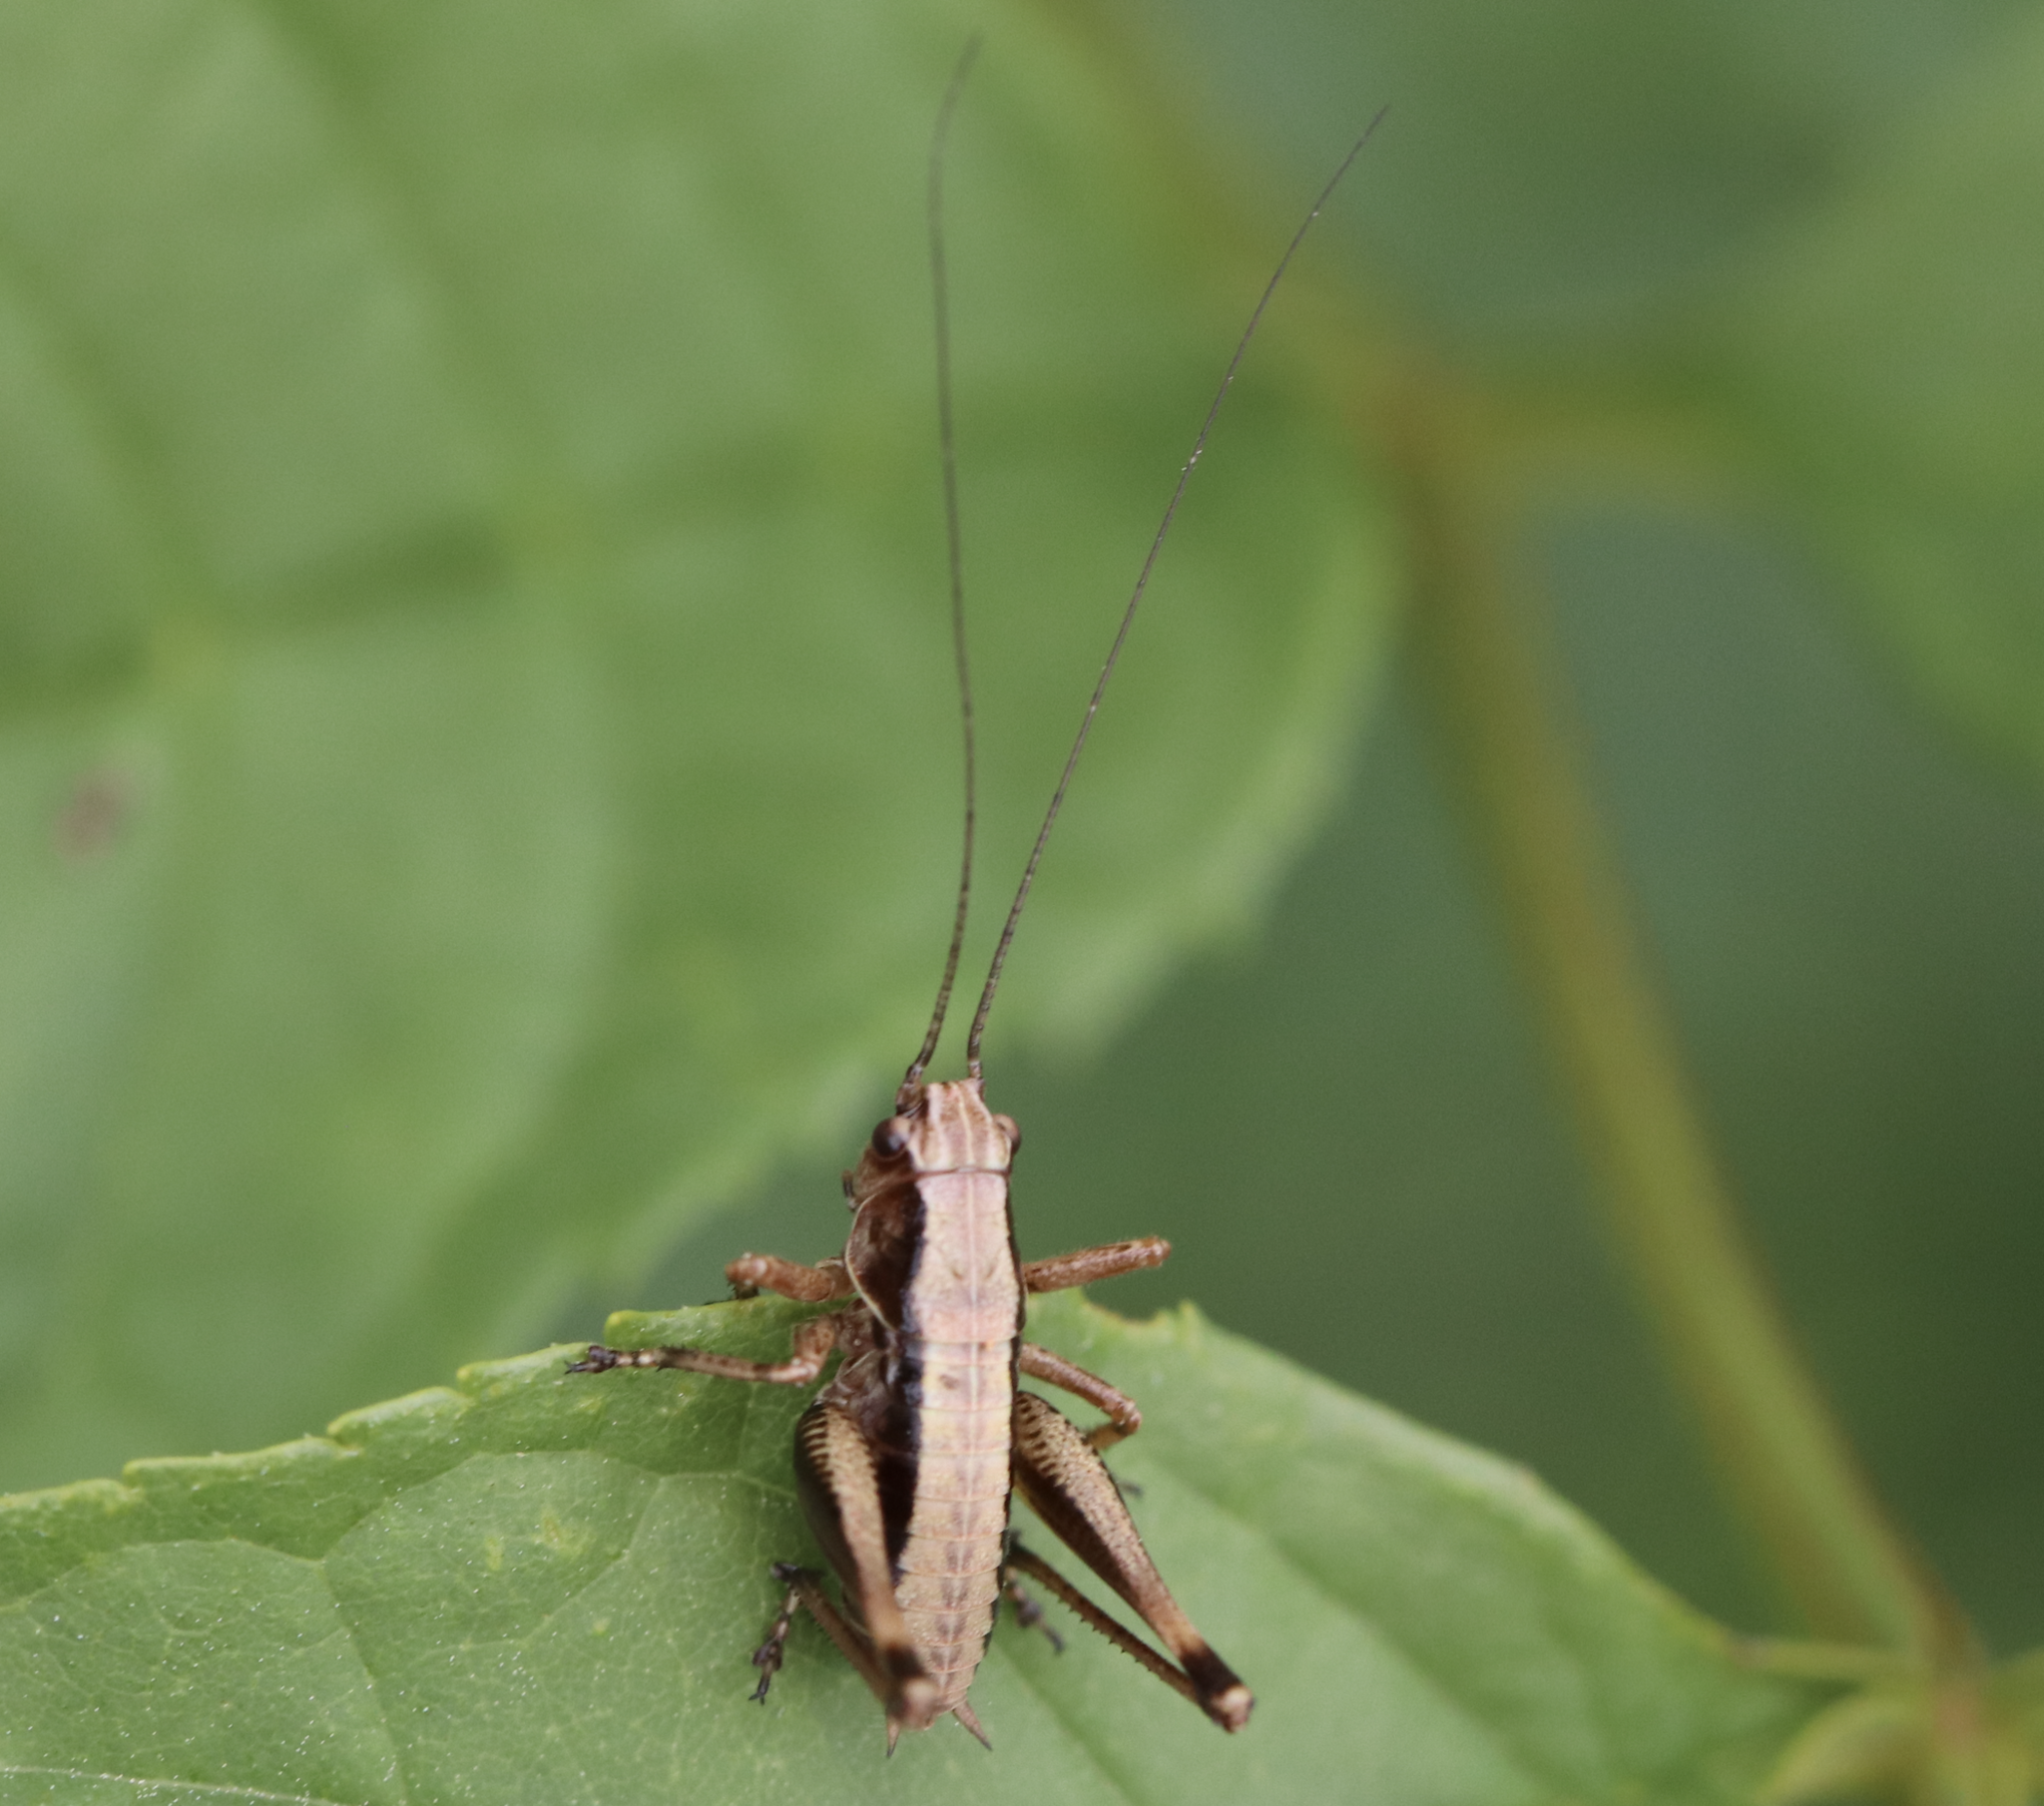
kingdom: Animalia
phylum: Arthropoda
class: Insecta
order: Orthoptera
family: Tettigoniidae
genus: Pholidoptera
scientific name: Pholidoptera griseoaptera
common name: Dark bush-cricket
